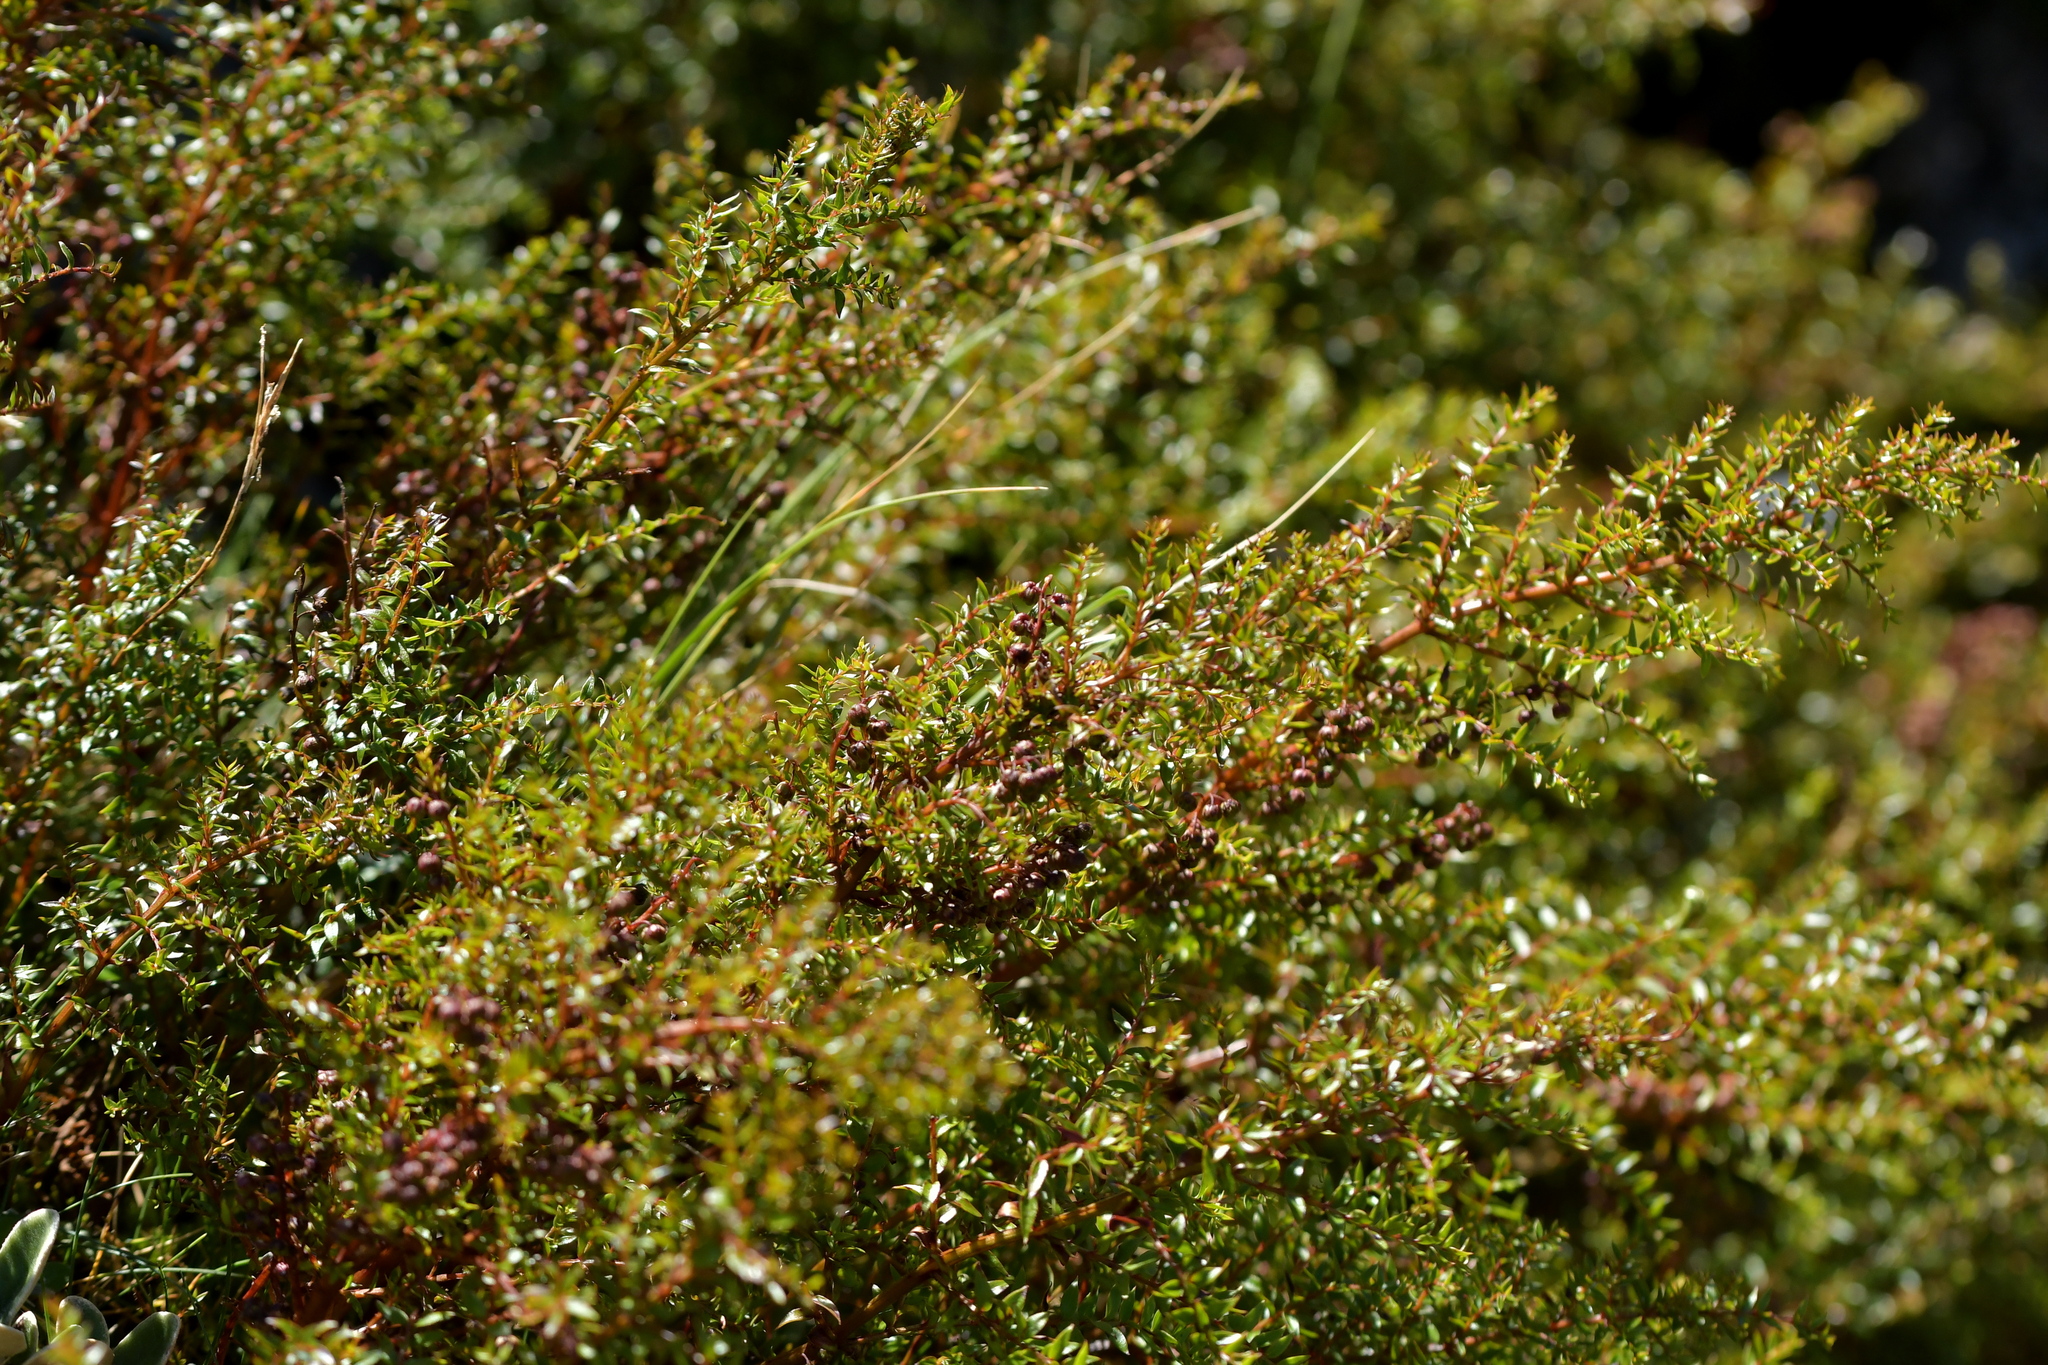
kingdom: Plantae
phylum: Tracheophyta
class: Magnoliopsida
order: Cucurbitales
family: Coriariaceae
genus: Coriaria
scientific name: Coriaria plumosa
